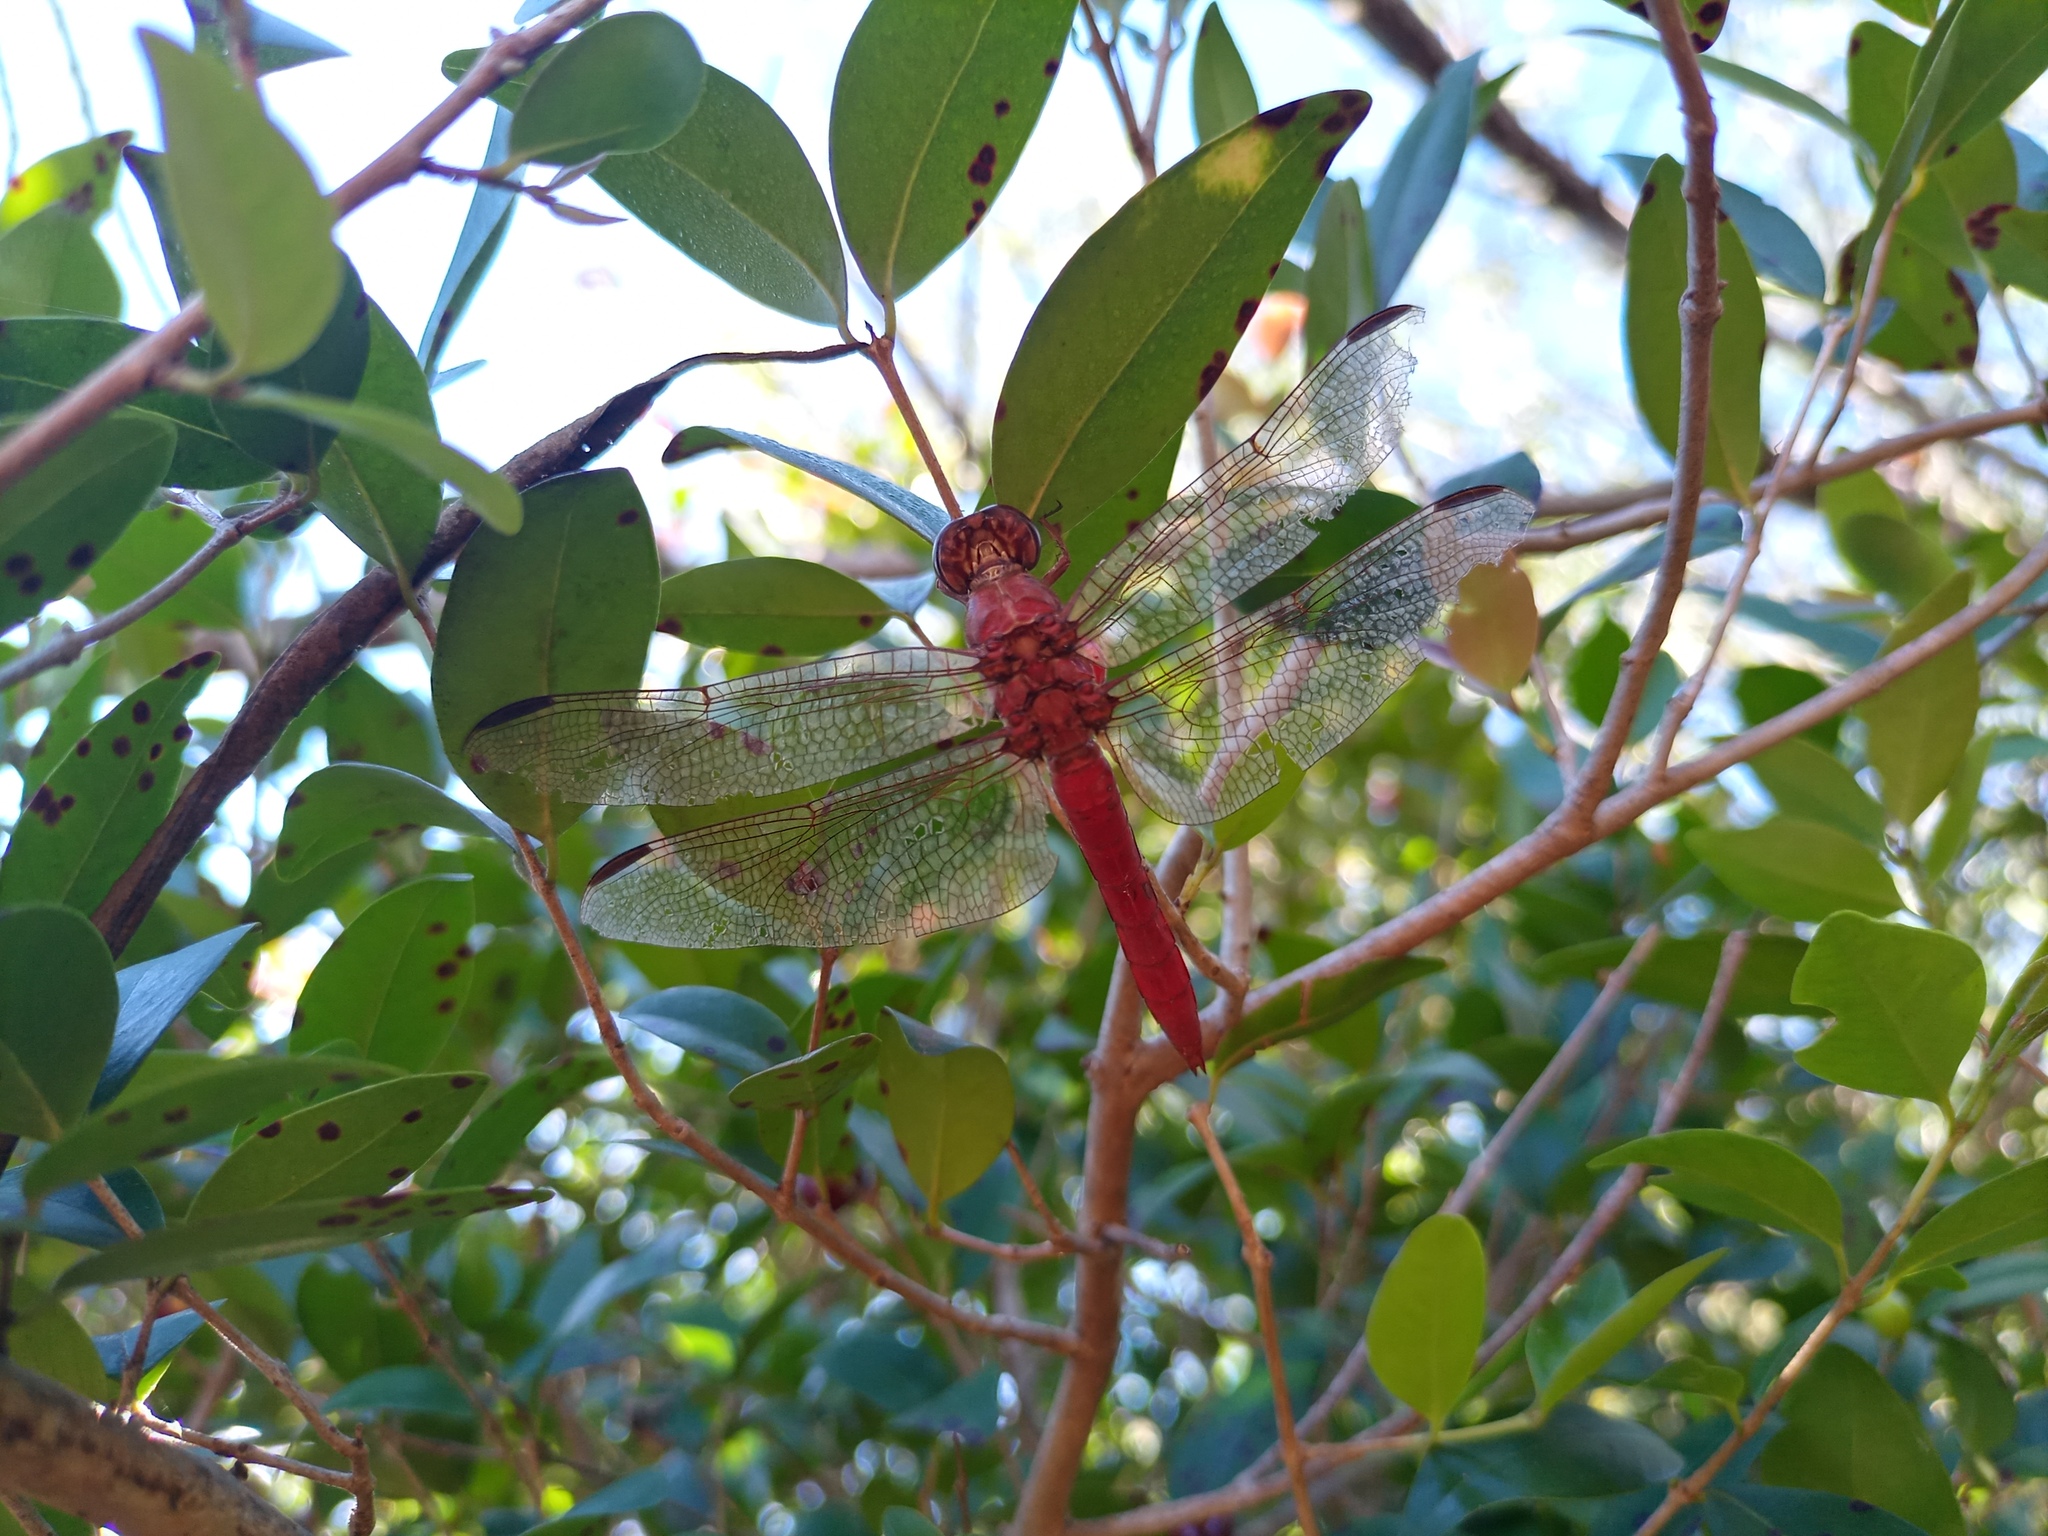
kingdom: Animalia
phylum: Arthropoda
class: Insecta
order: Odonata
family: Libellulidae
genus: Orthemis
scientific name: Orthemis nodiplaga
